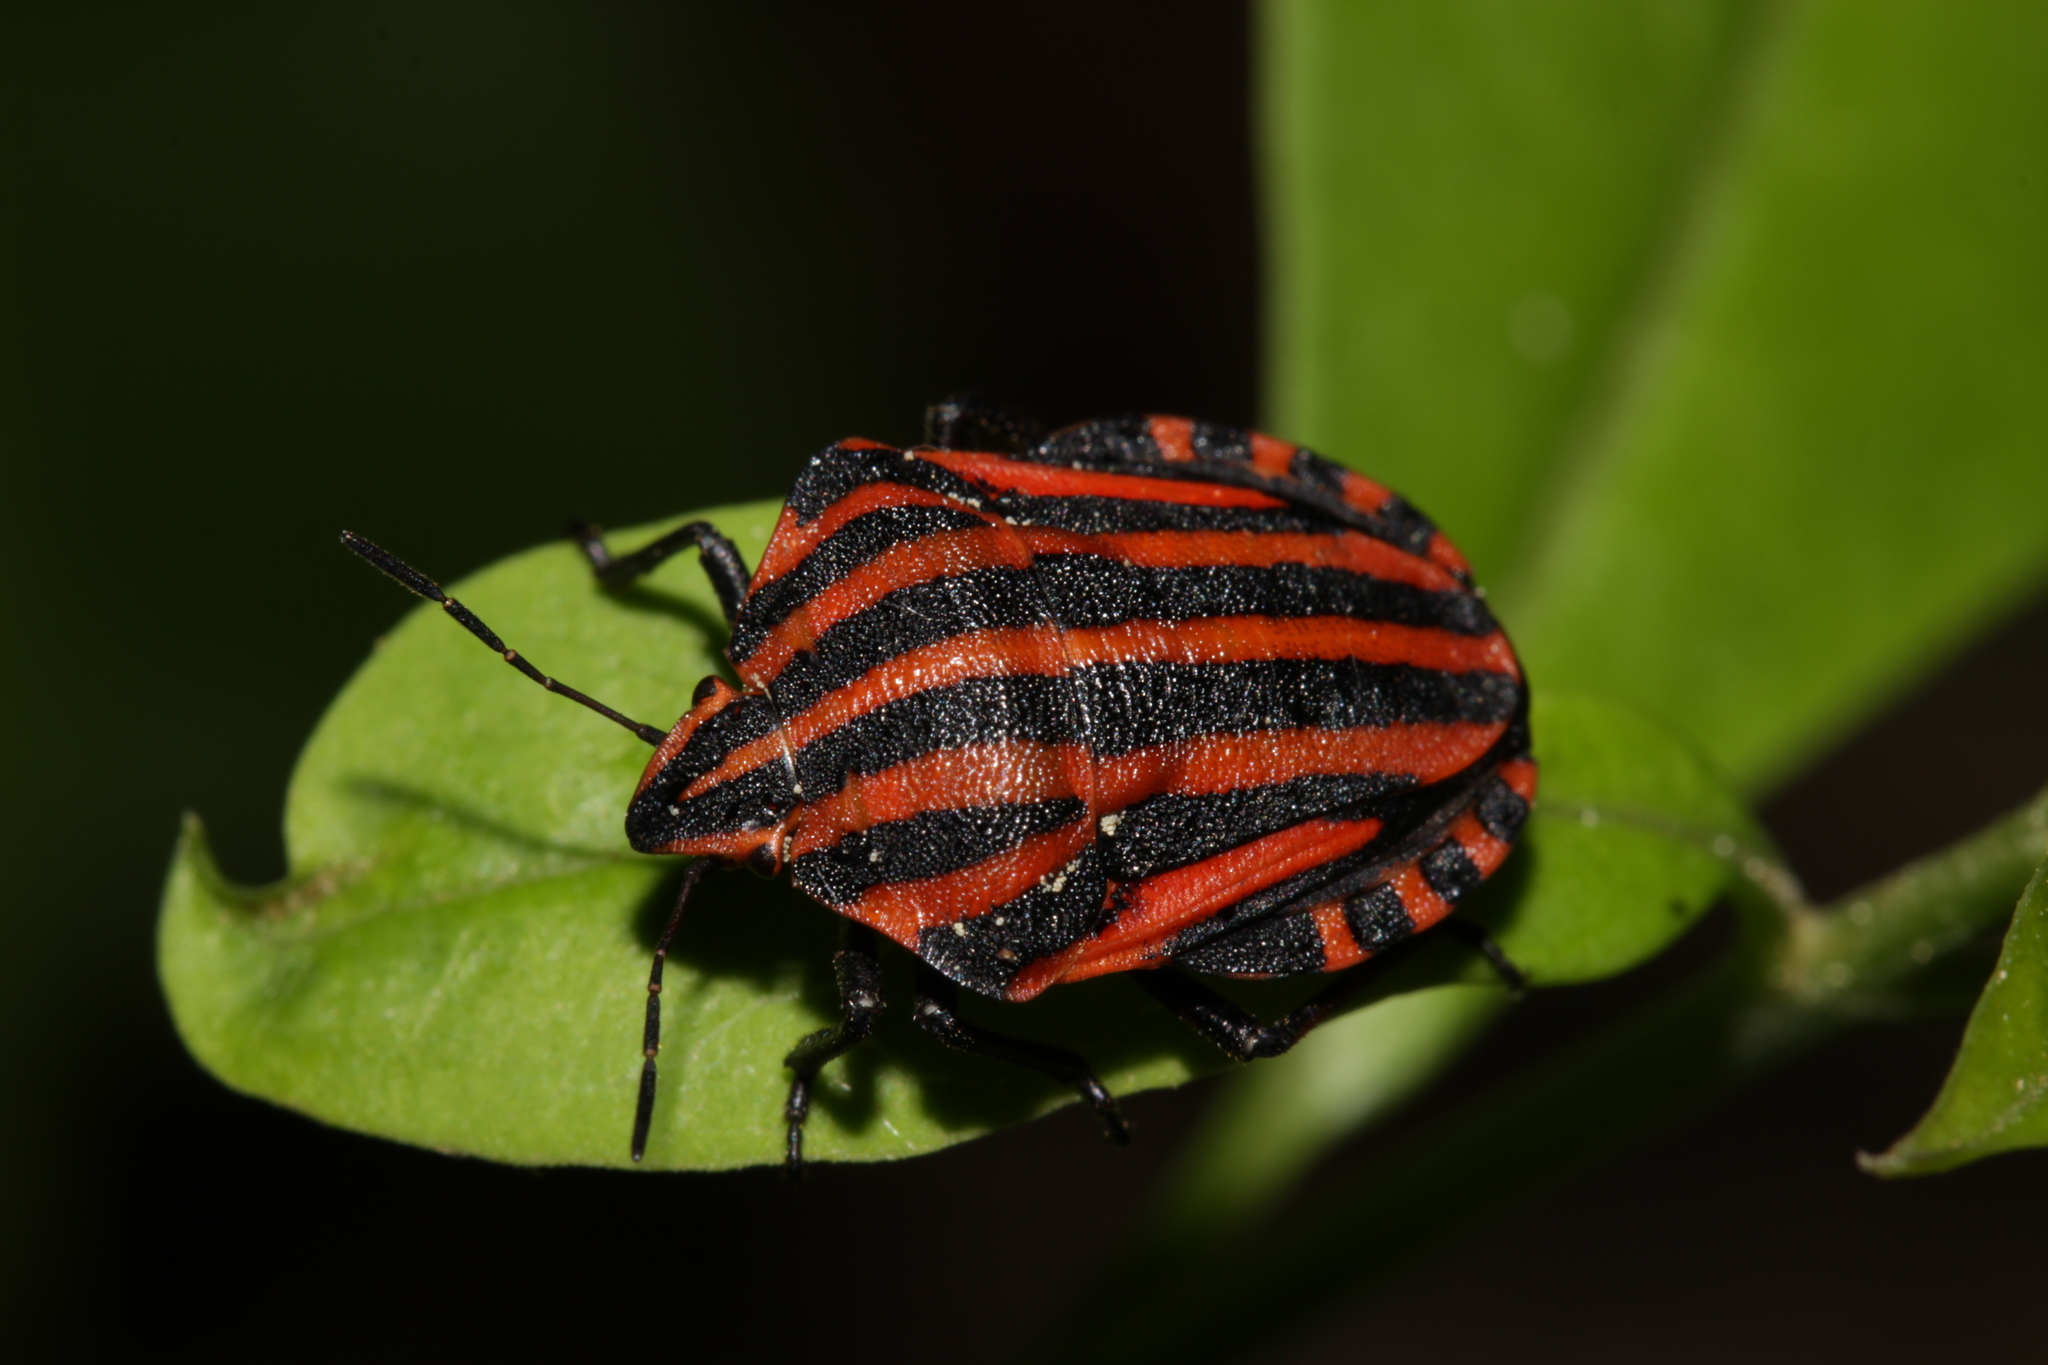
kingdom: Animalia
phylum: Arthropoda
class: Insecta
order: Hemiptera
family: Pentatomidae
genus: Graphosoma
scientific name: Graphosoma italicum
